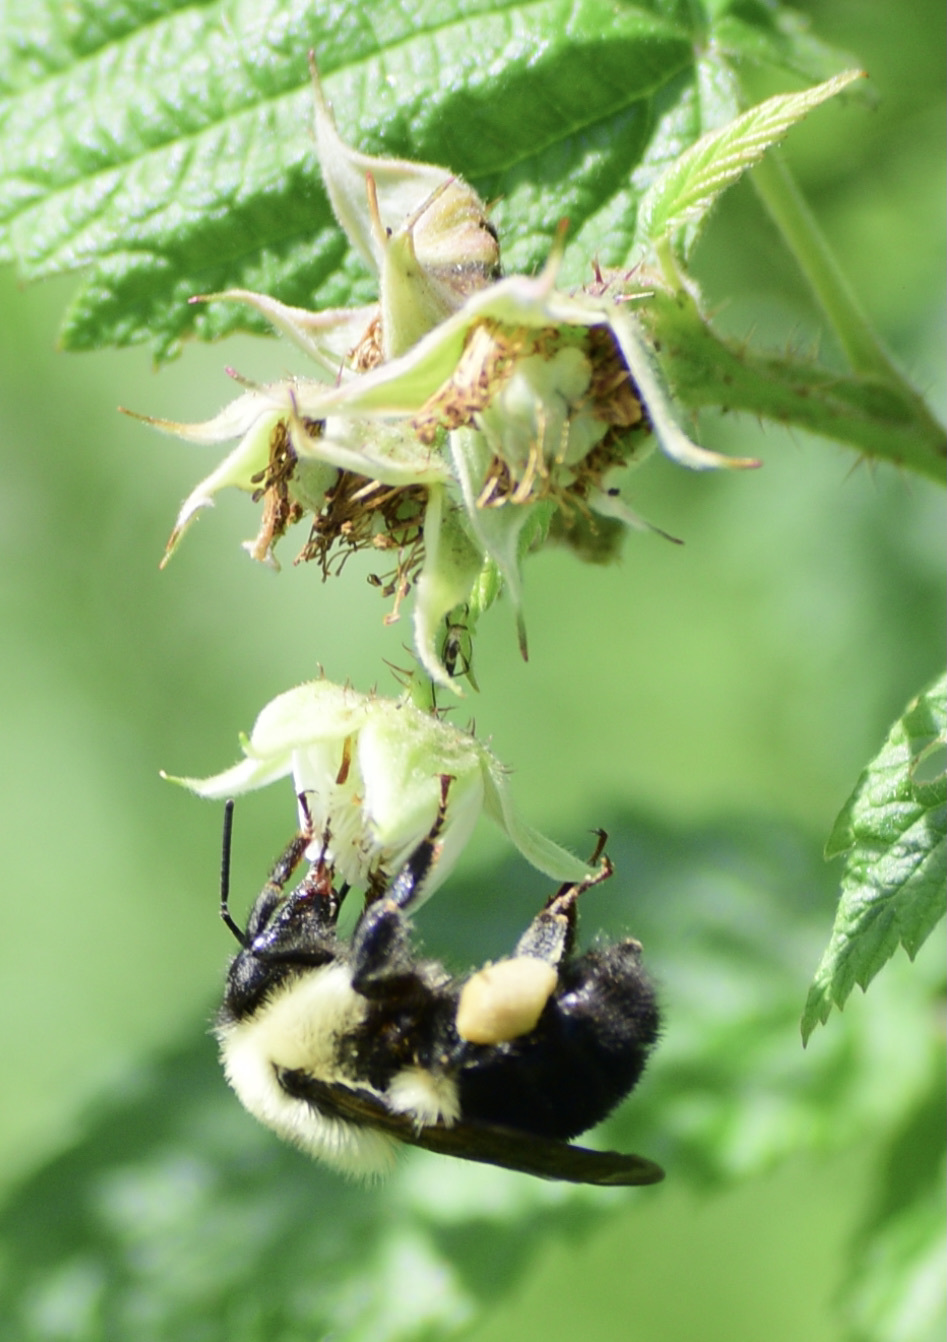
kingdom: Animalia
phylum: Arthropoda
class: Insecta
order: Hymenoptera
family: Apidae
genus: Bombus
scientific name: Bombus bimaculatus
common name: Two-spotted bumble bee
